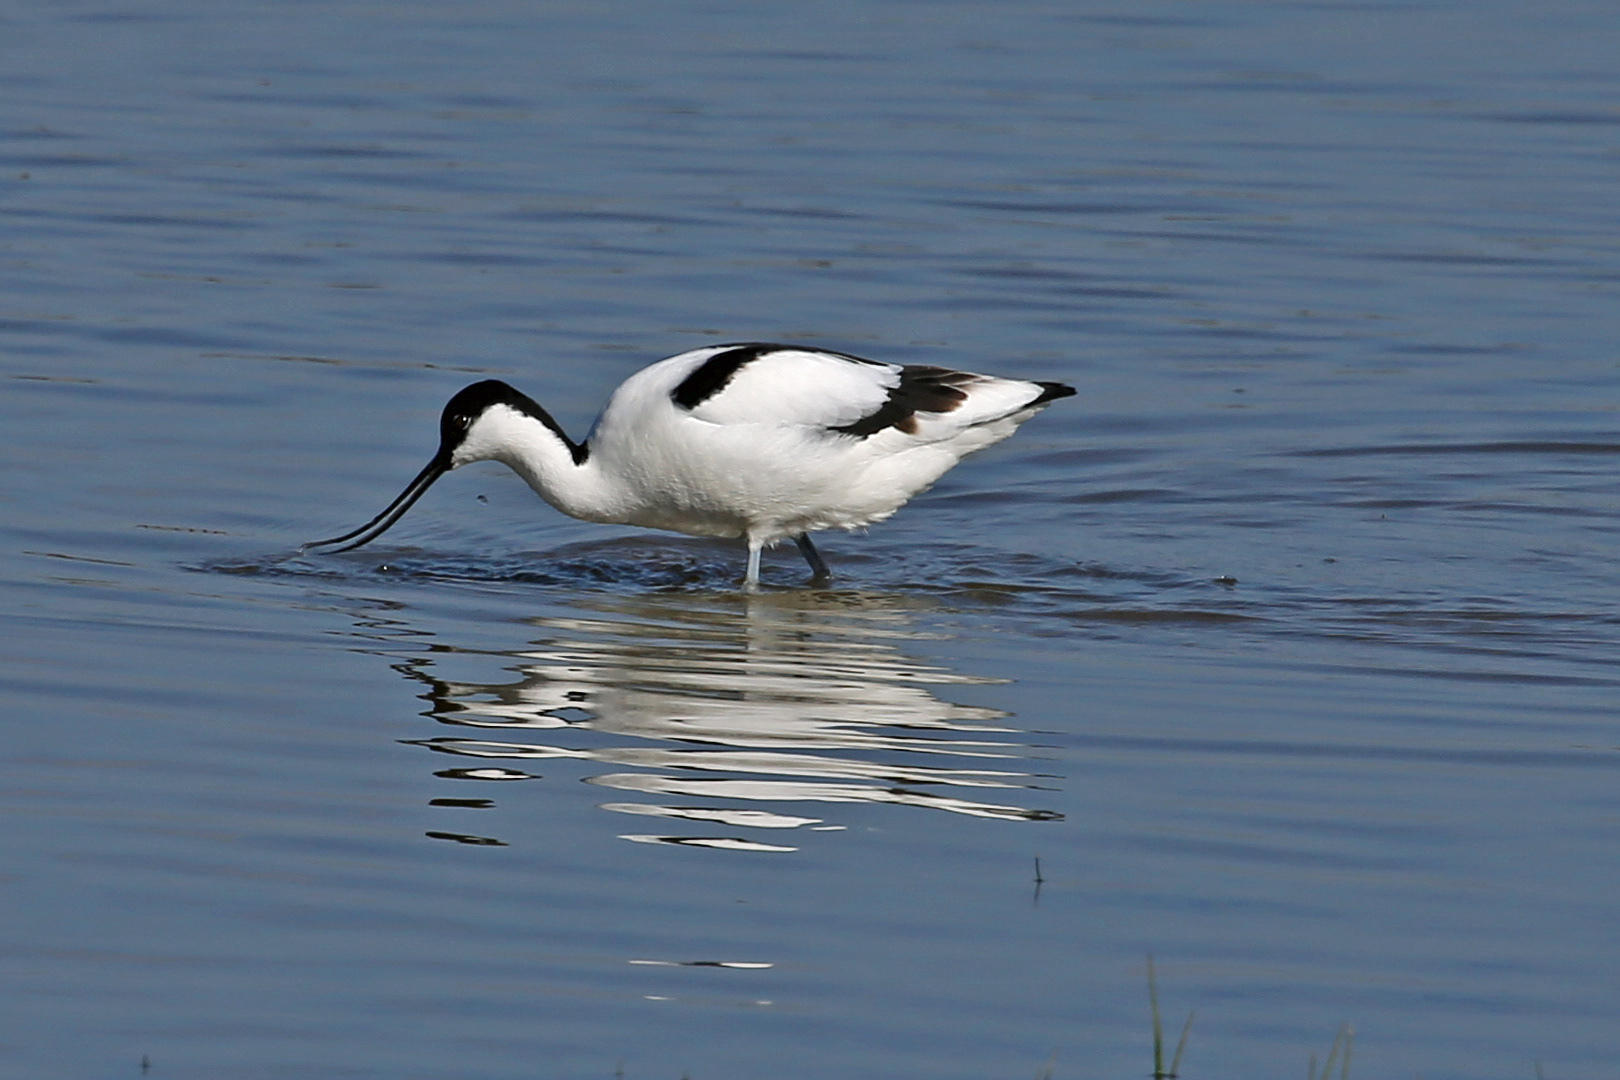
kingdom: Animalia
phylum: Chordata
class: Aves
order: Charadriiformes
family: Recurvirostridae
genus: Recurvirostra
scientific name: Recurvirostra avosetta
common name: Pied avocet
